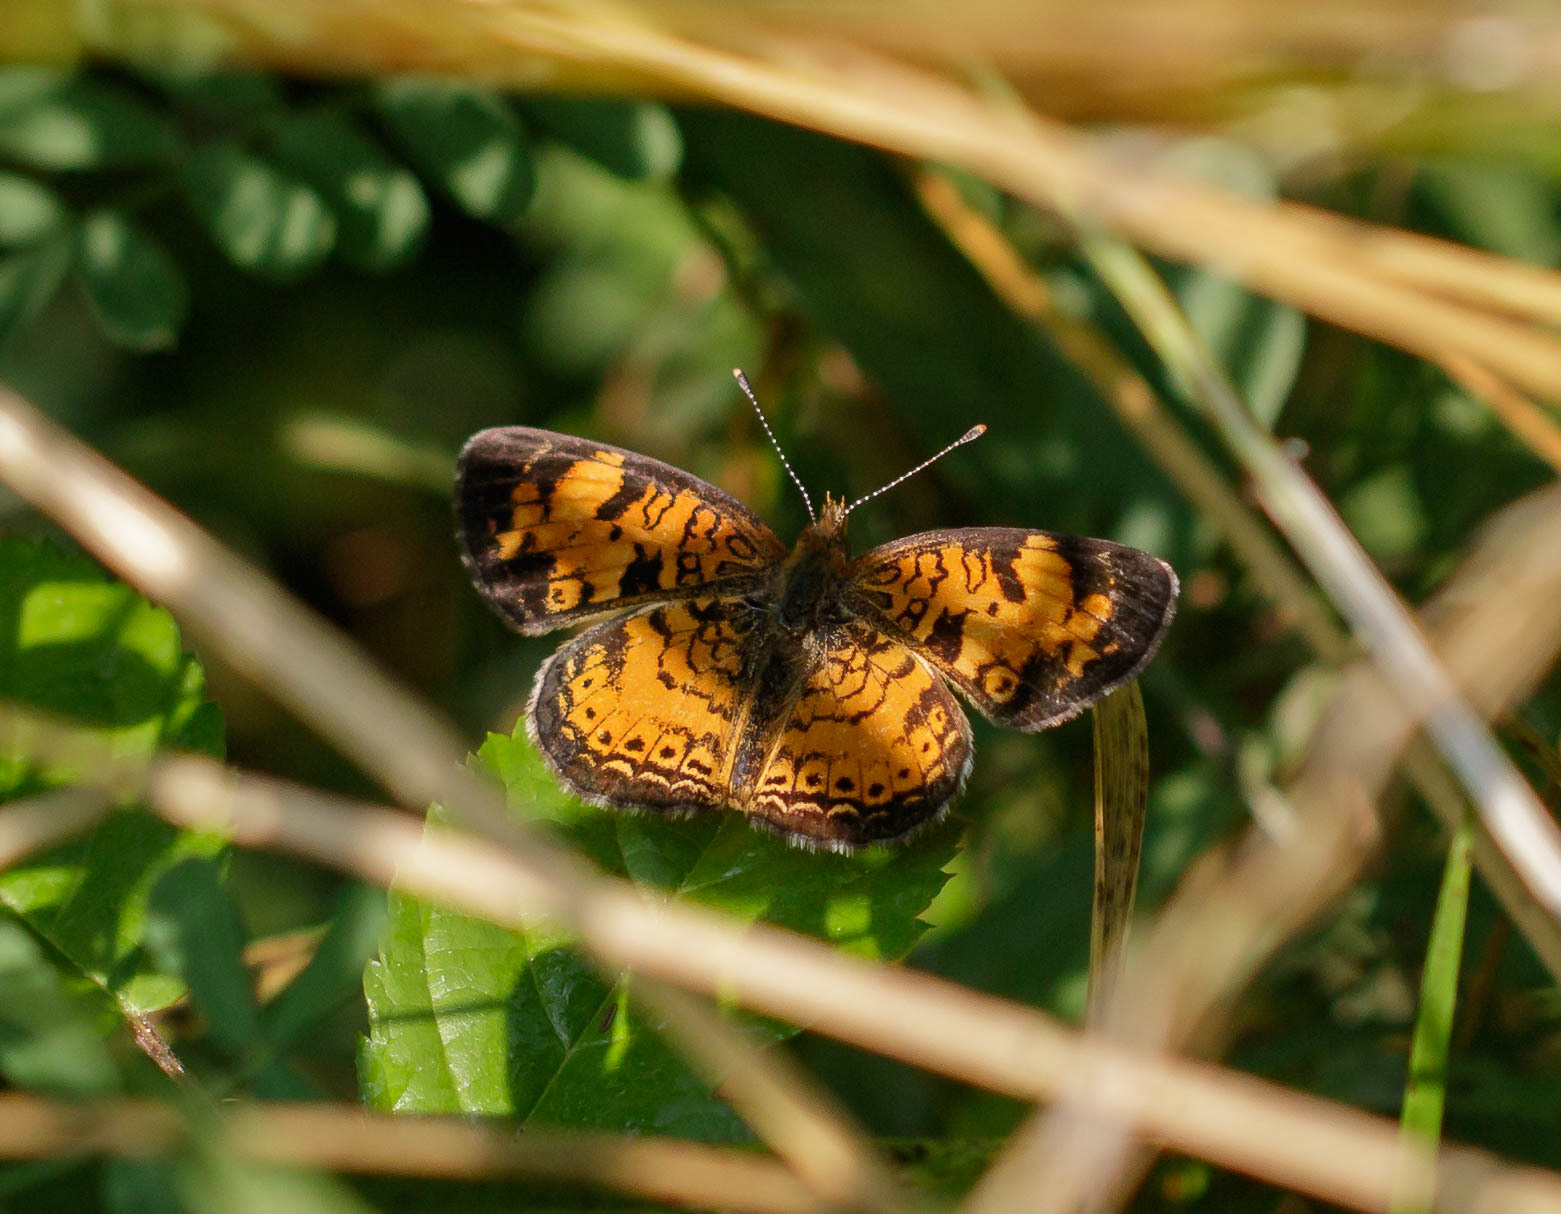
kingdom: Animalia
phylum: Arthropoda
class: Insecta
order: Lepidoptera
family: Nymphalidae
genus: Phyciodes
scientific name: Phyciodes tharos
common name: Pearl crescent
